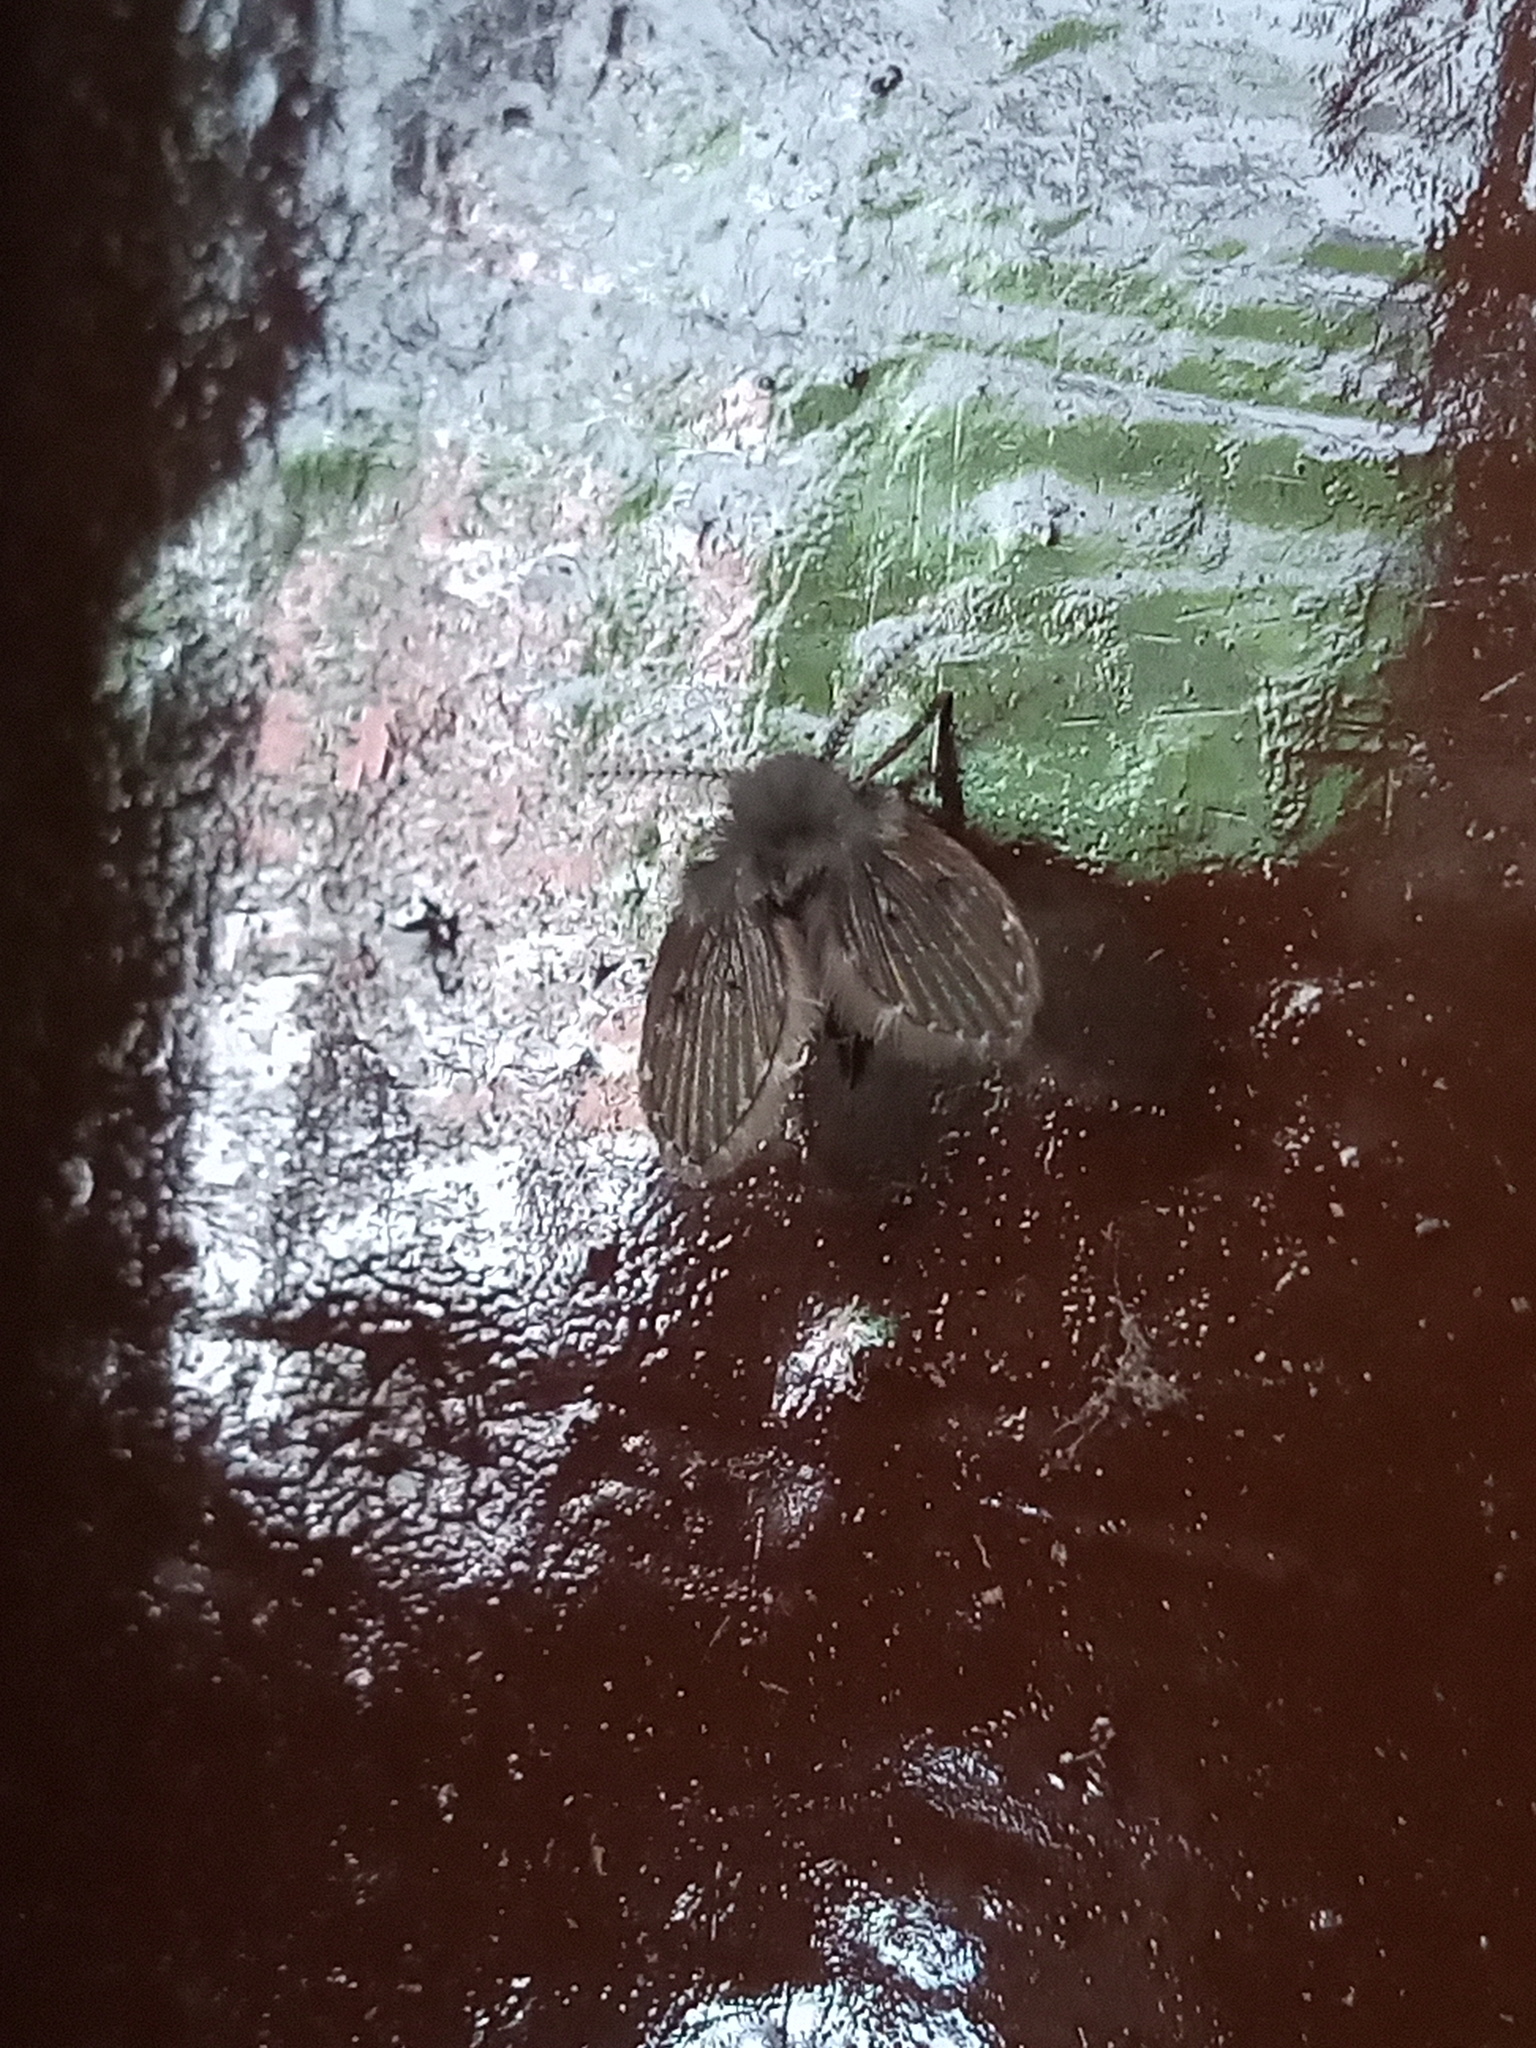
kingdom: Animalia
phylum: Arthropoda
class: Insecta
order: Diptera
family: Psychodidae
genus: Clogmia
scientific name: Clogmia albipunctatus
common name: White-spotted moth fly
